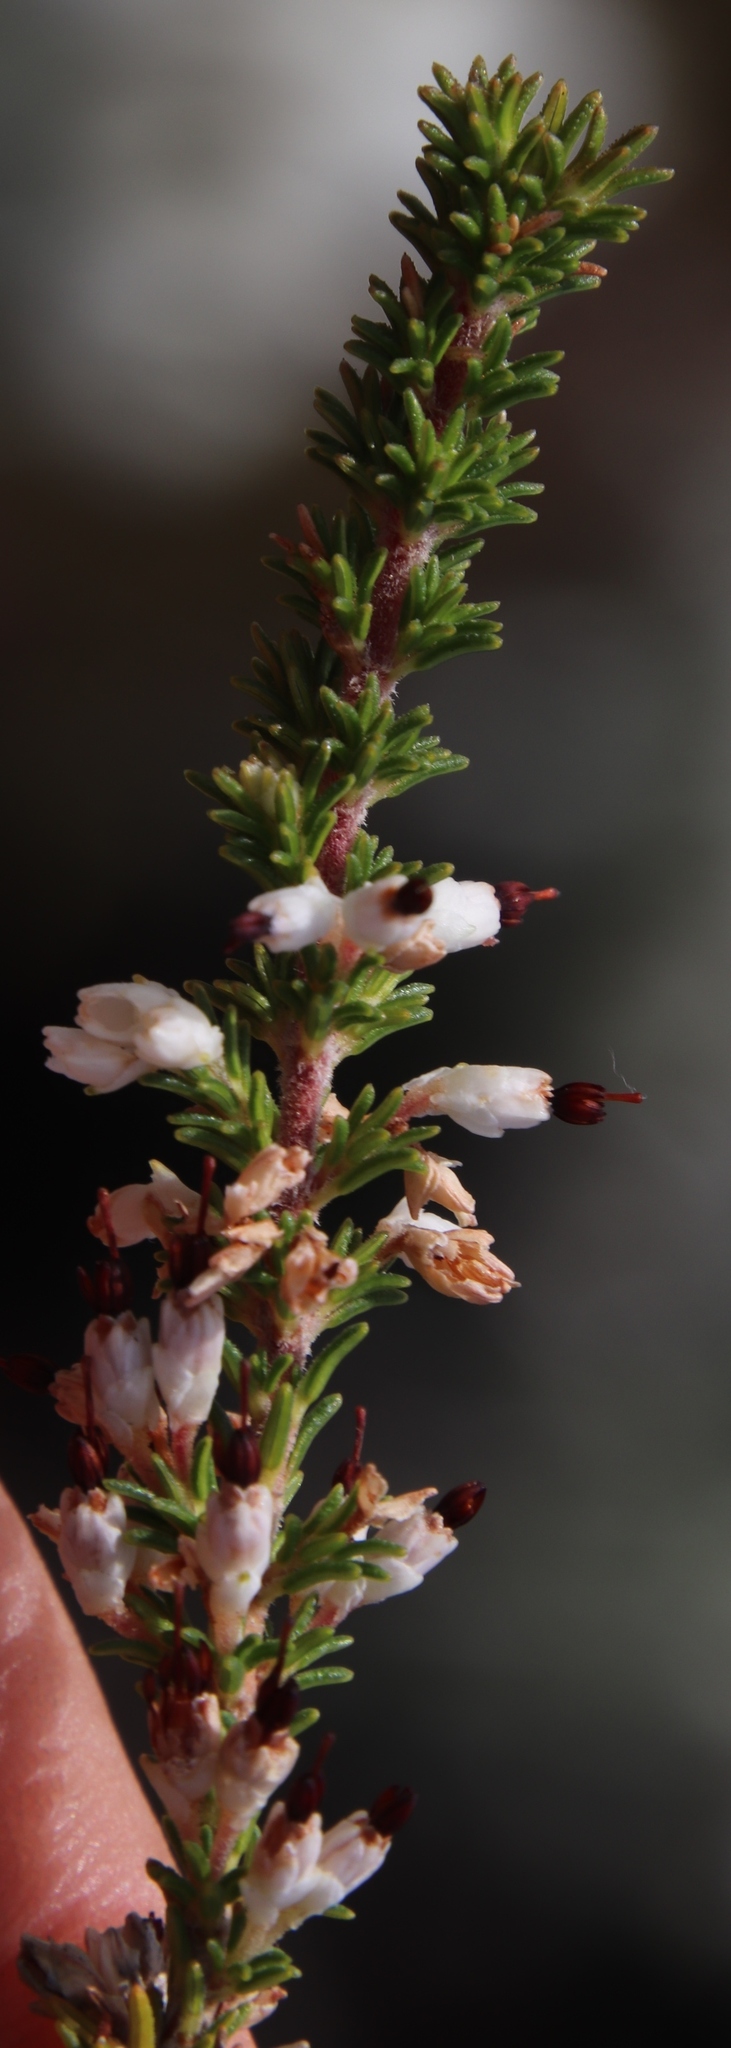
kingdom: Plantae
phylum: Tracheophyta
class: Magnoliopsida
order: Ericales
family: Ericaceae
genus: Erica
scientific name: Erica imbricata
